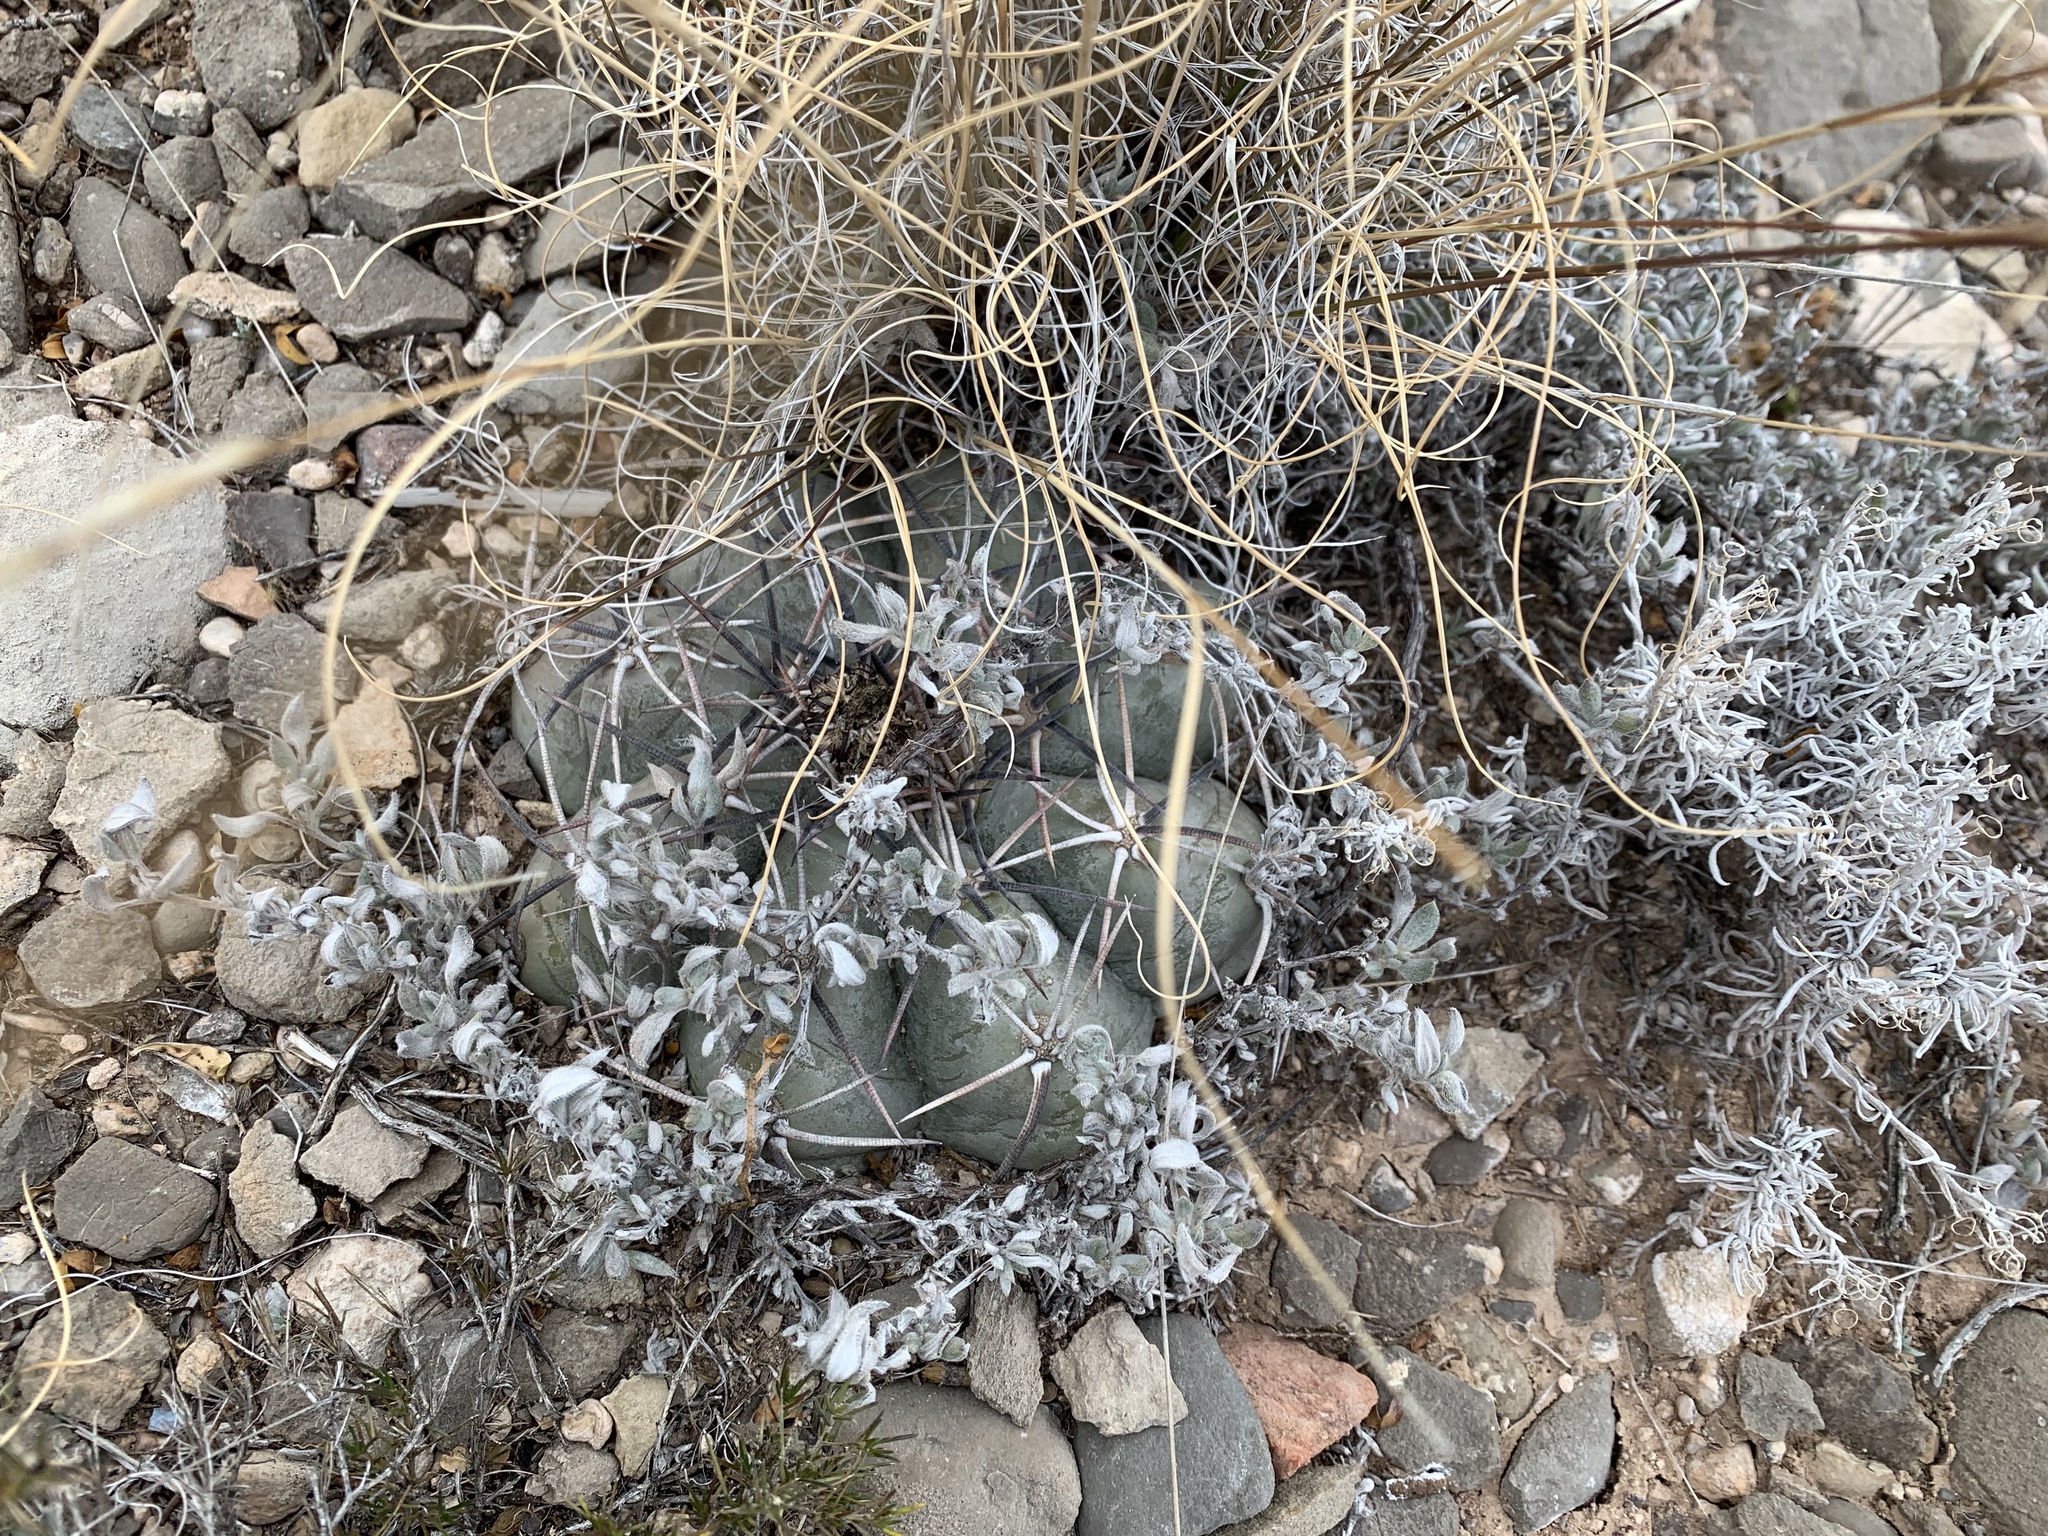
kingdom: Plantae
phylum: Tracheophyta
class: Magnoliopsida
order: Caryophyllales
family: Cactaceae
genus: Echinocactus
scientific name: Echinocactus horizonthalonius
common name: Devilshead
